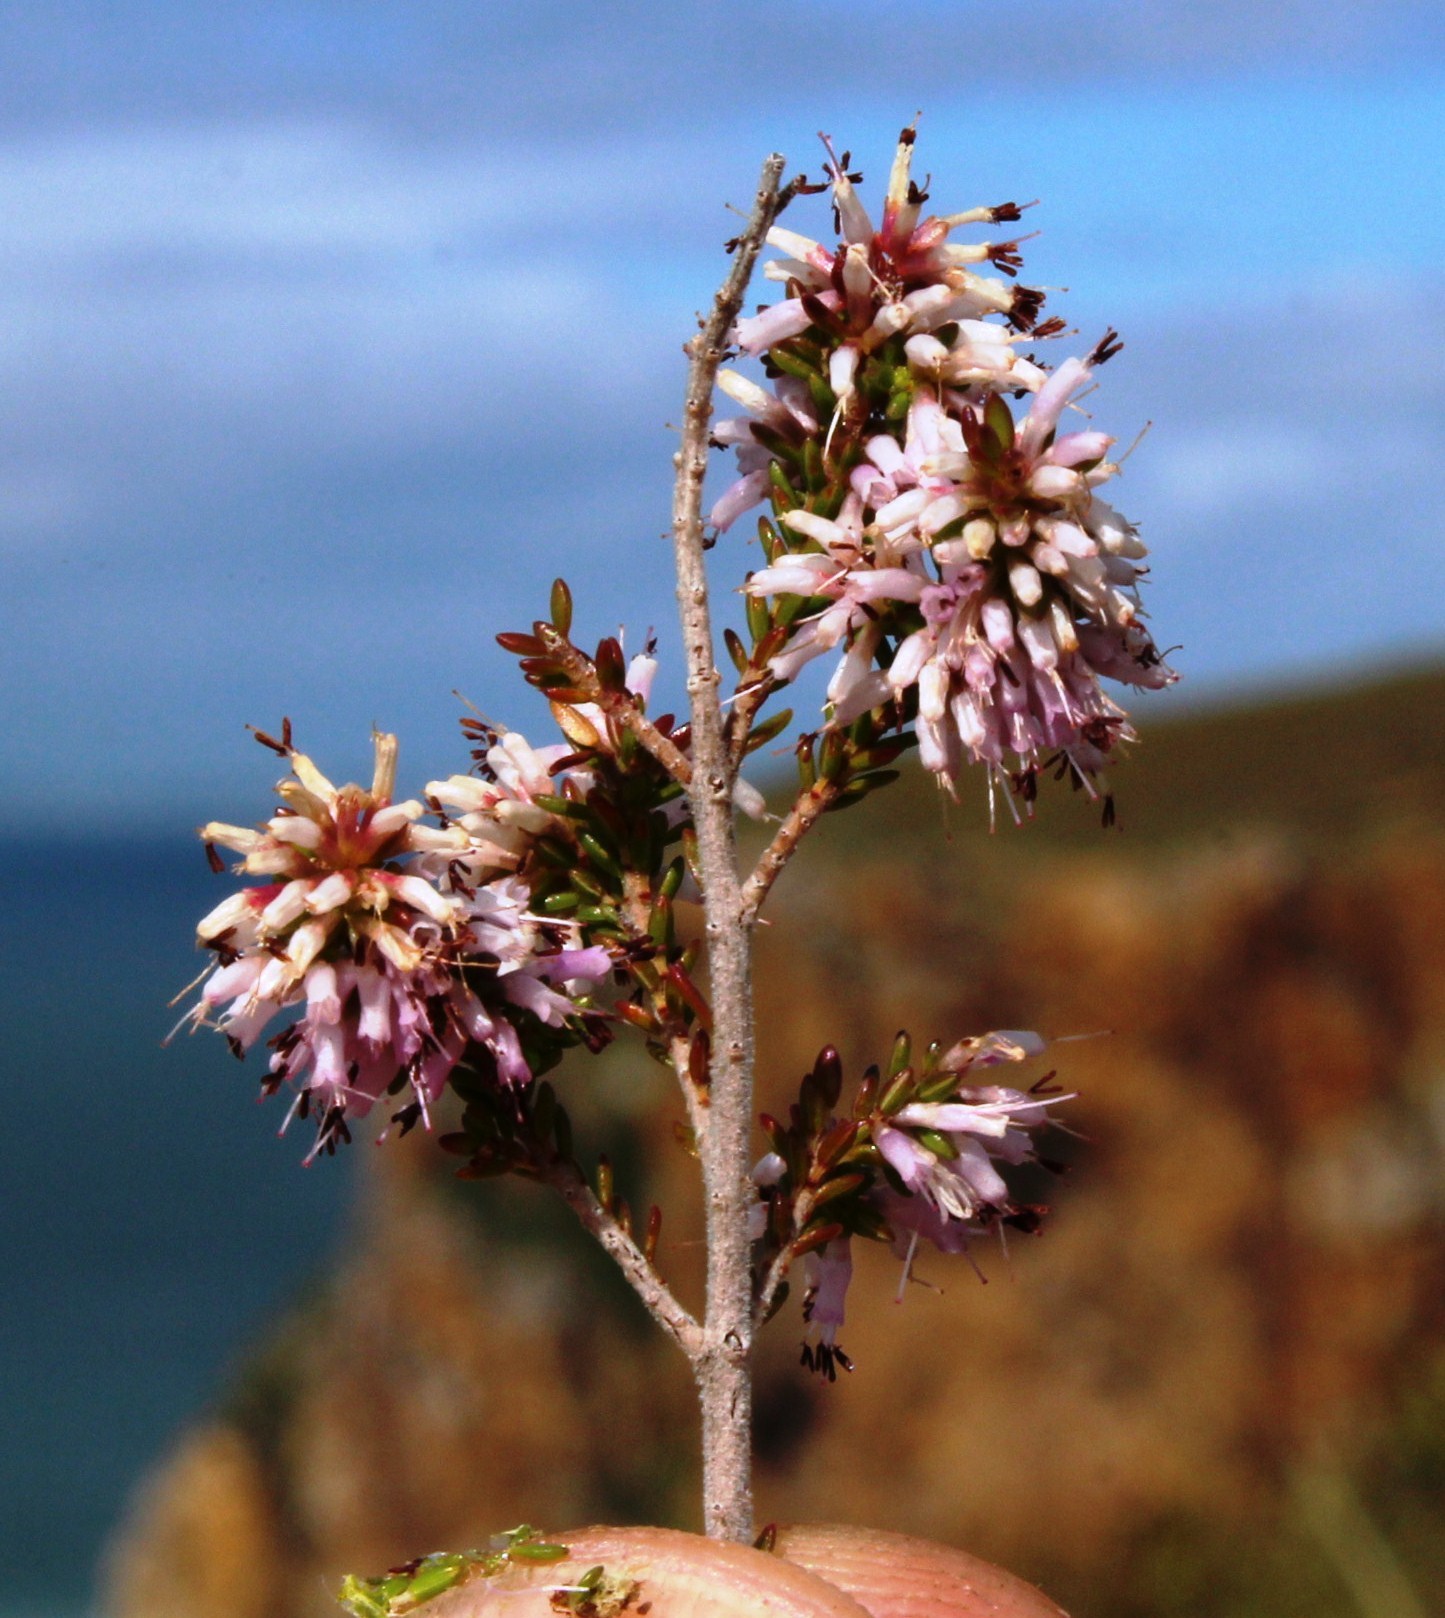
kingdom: Plantae
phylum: Tracheophyta
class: Magnoliopsida
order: Ericales
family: Ericaceae
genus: Erica
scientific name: Erica uberiflora
